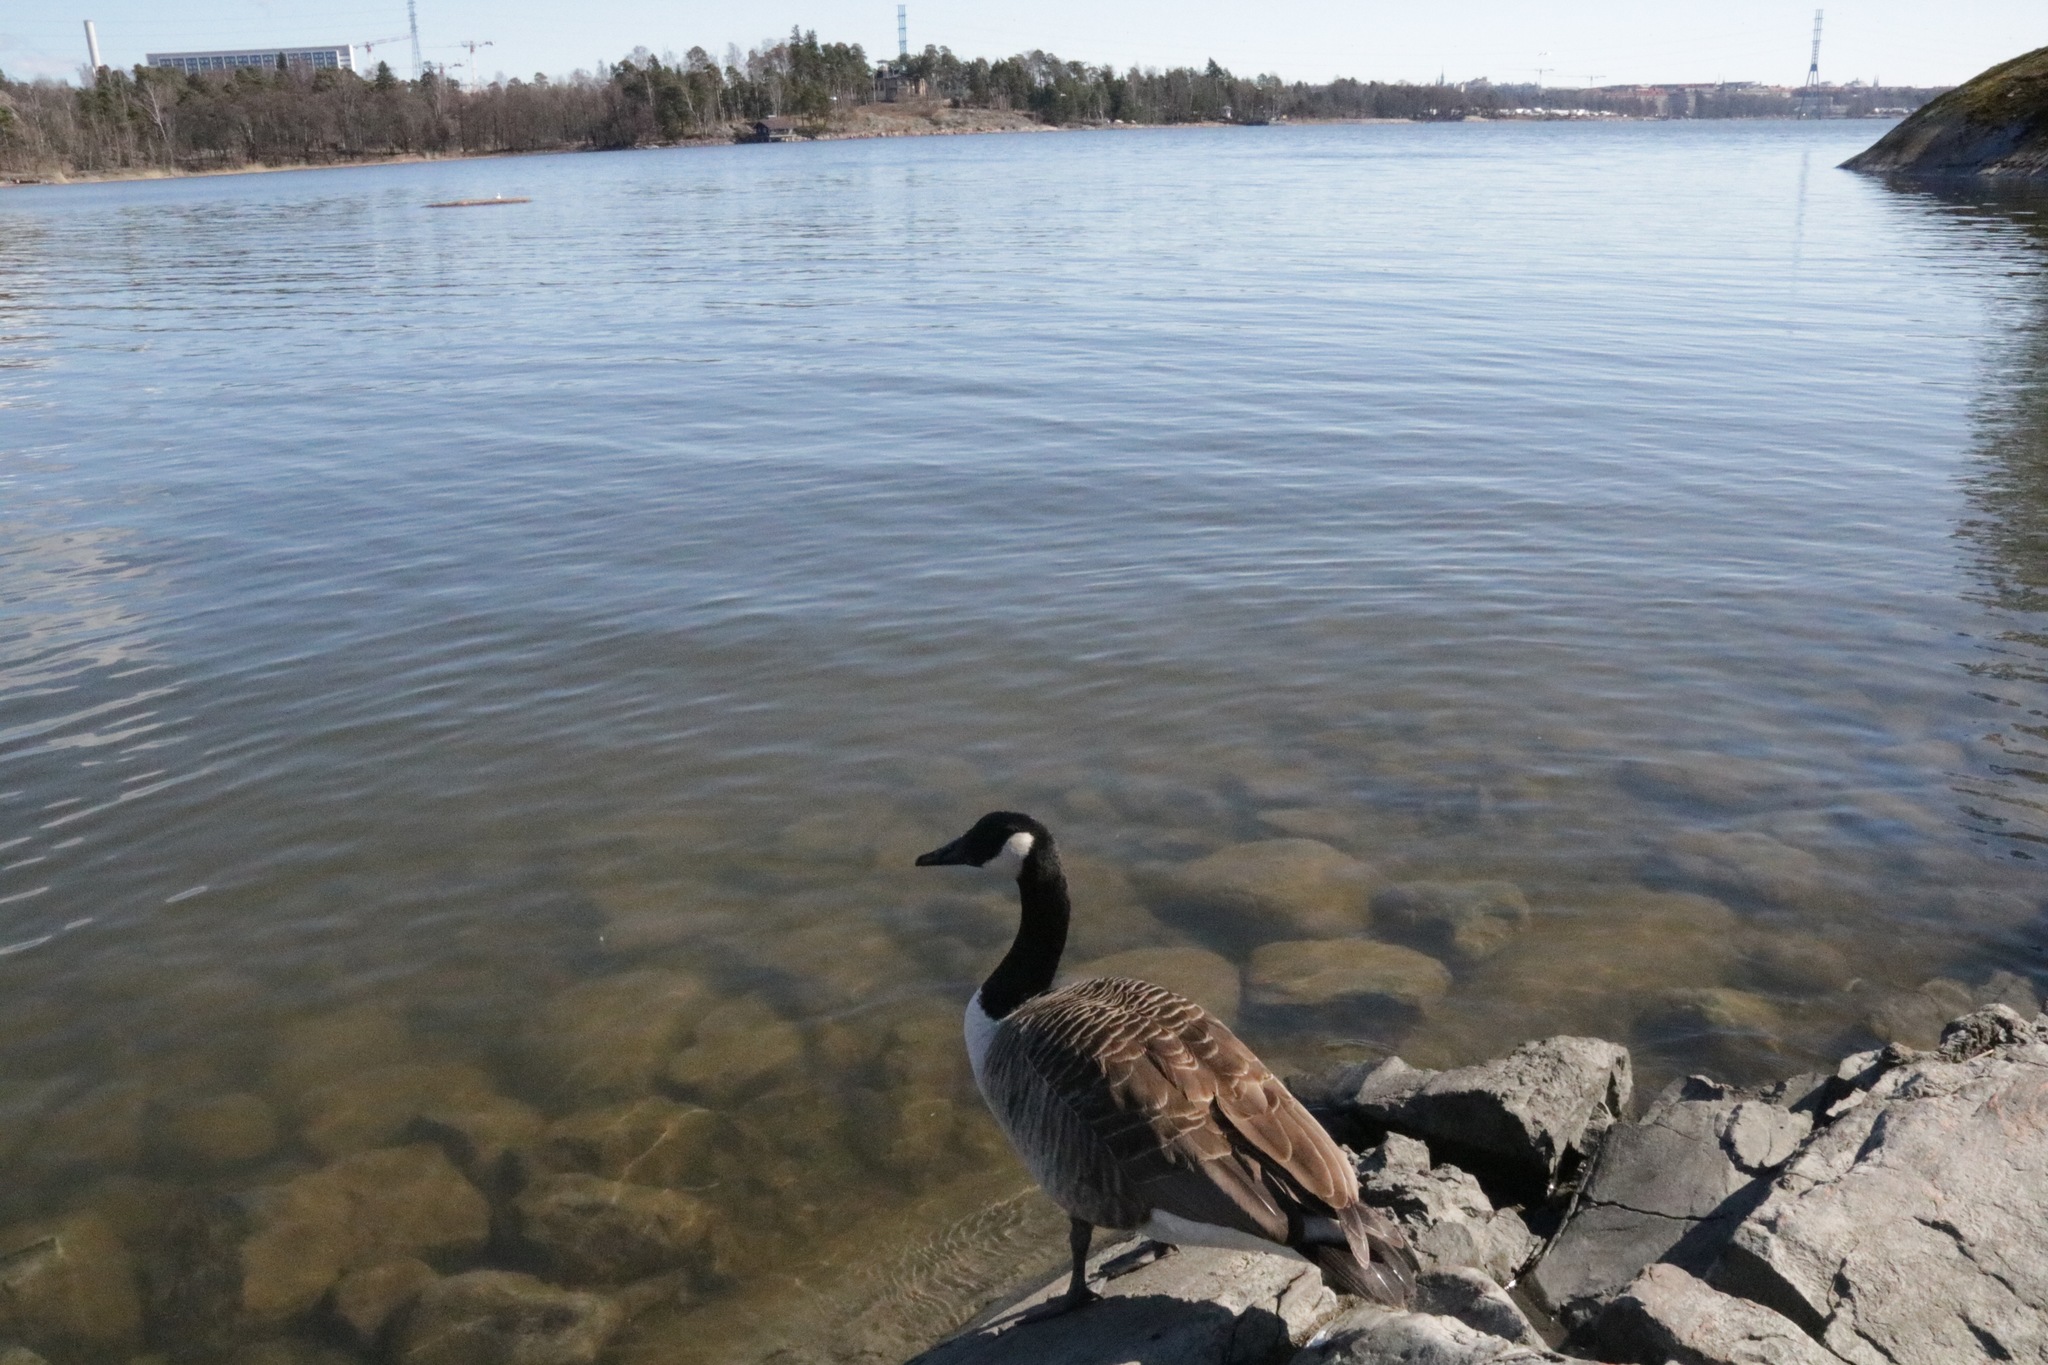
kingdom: Animalia
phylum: Chordata
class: Aves
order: Anseriformes
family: Anatidae
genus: Branta
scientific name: Branta canadensis
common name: Canada goose
